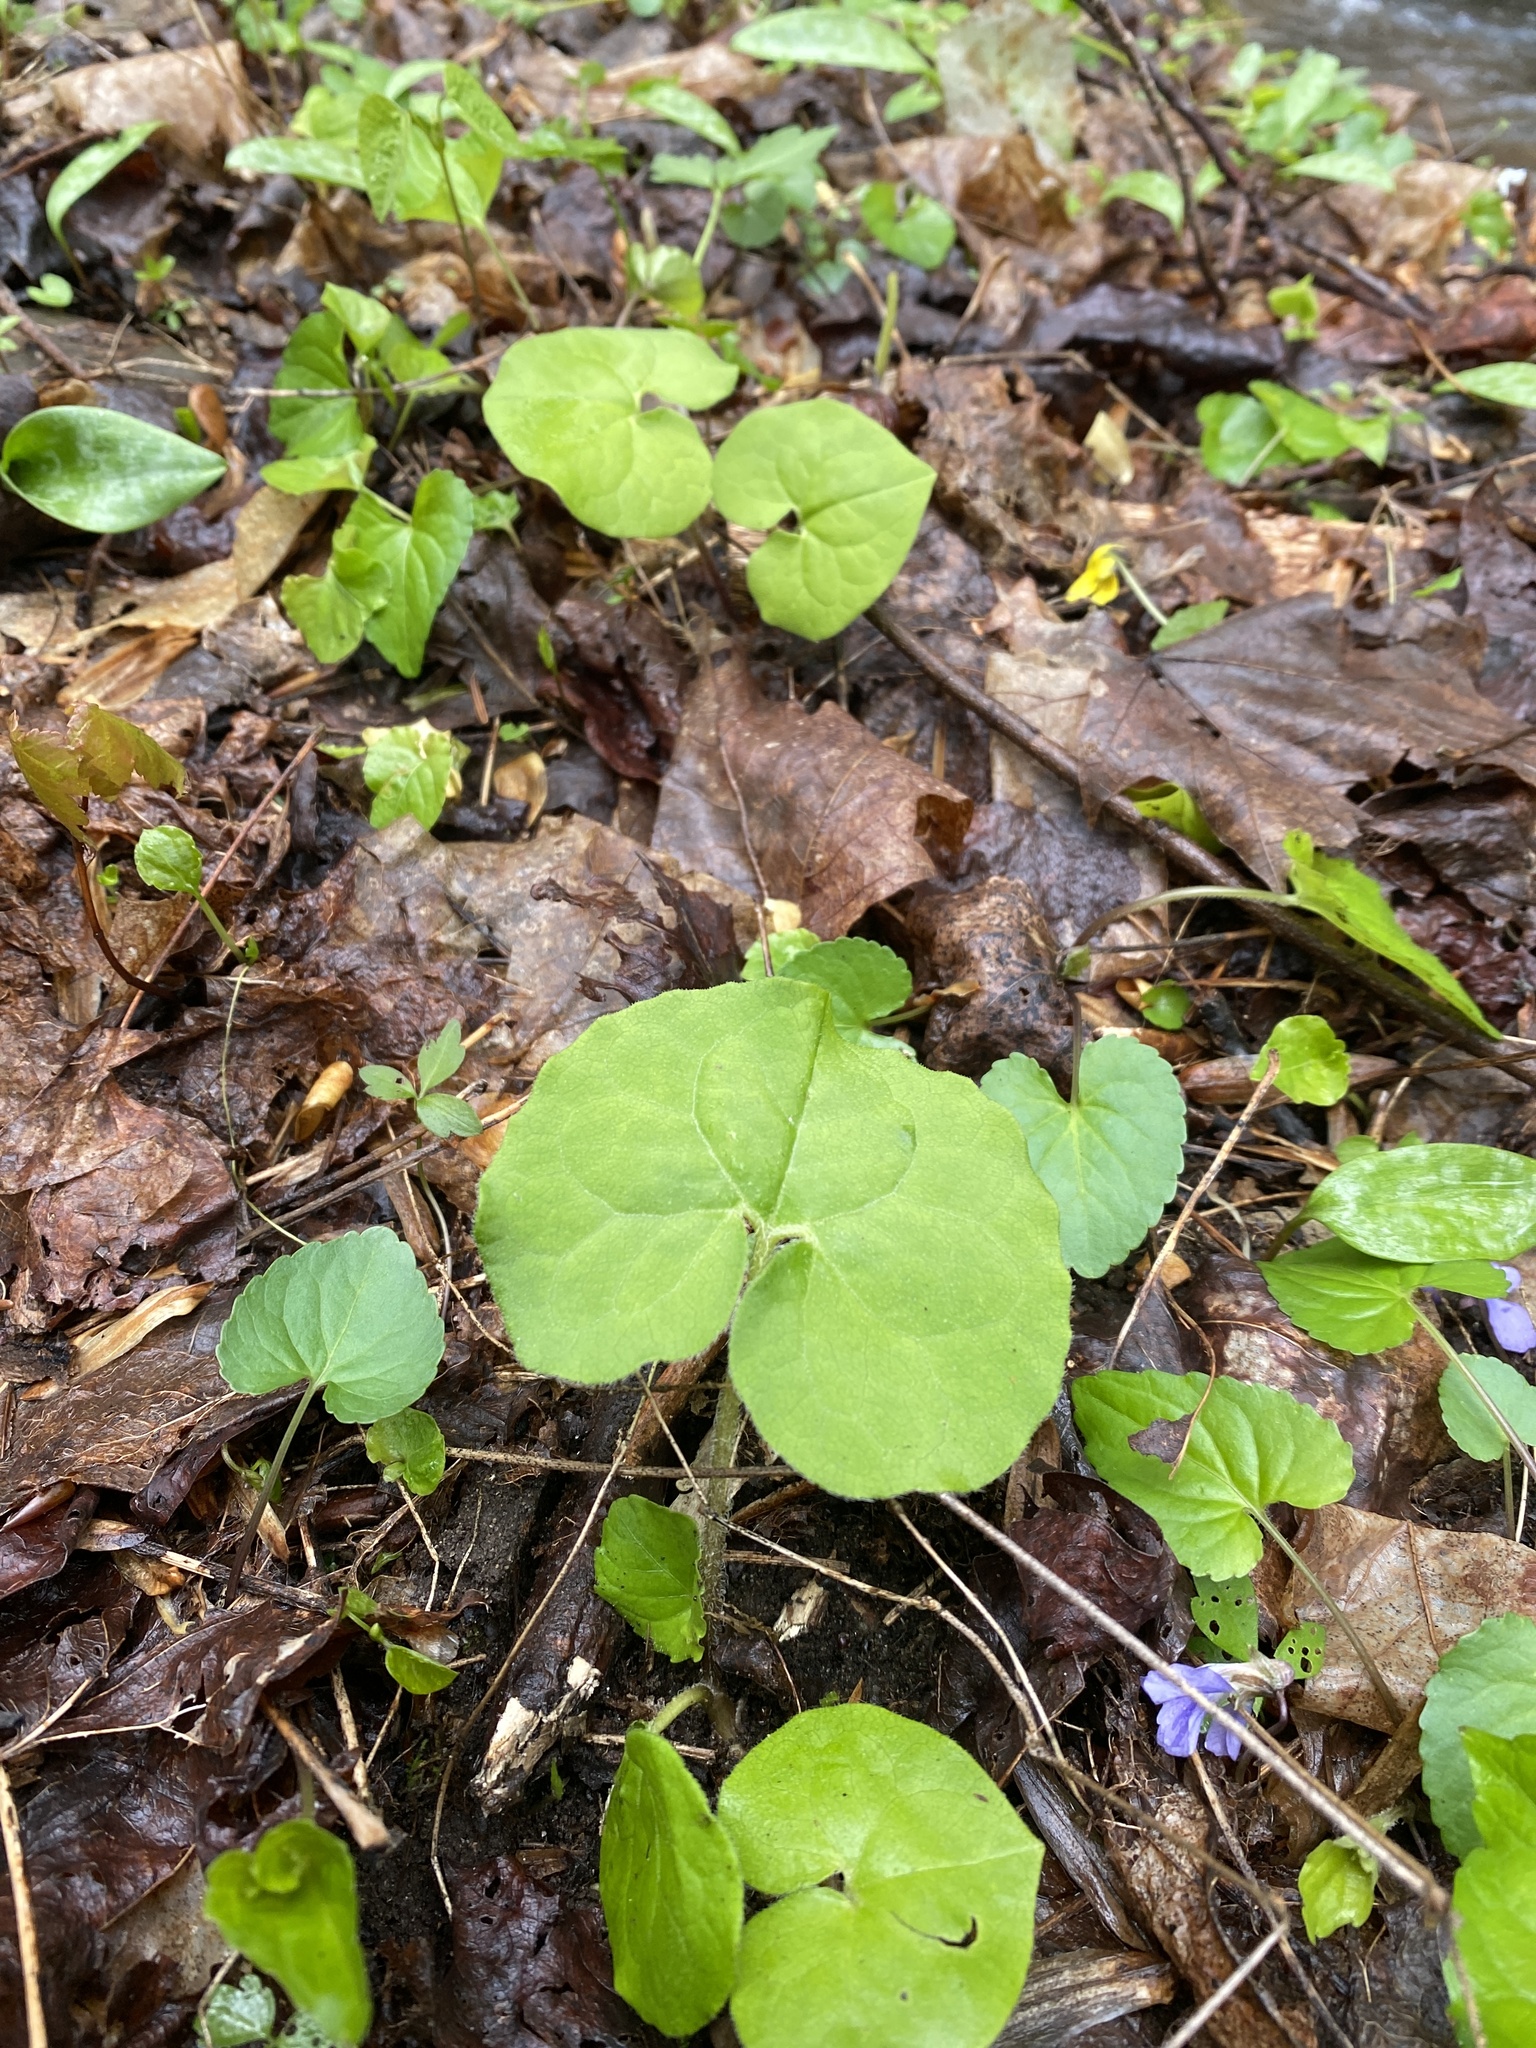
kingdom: Plantae
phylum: Tracheophyta
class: Magnoliopsida
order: Piperales
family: Aristolochiaceae
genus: Asarum
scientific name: Asarum canadense
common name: Wild ginger
